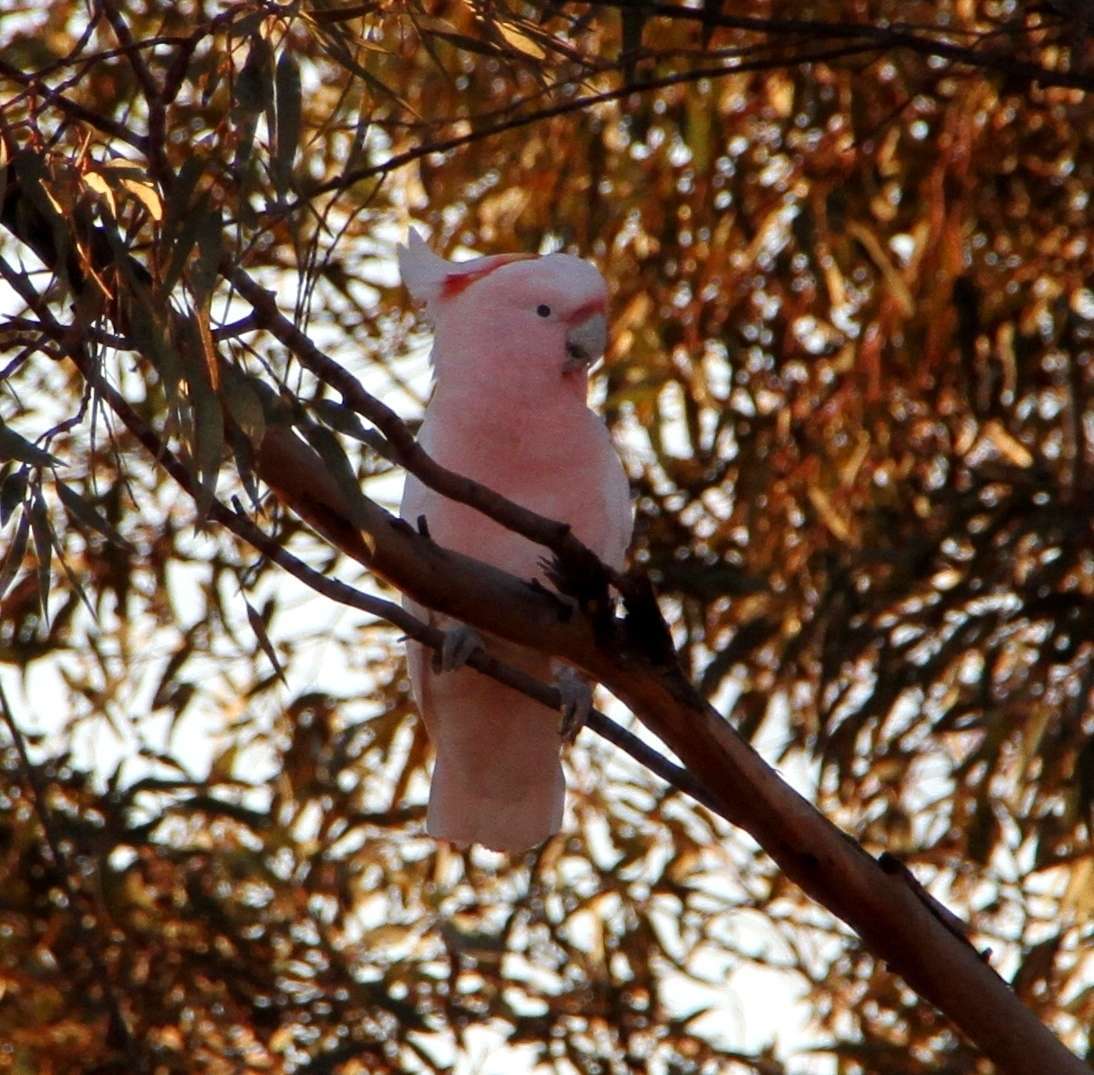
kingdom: Animalia
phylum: Chordata
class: Aves
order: Psittaciformes
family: Psittacidae
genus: Cacatua
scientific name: Cacatua leadbeateri
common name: Major mitchell's cockatoo
